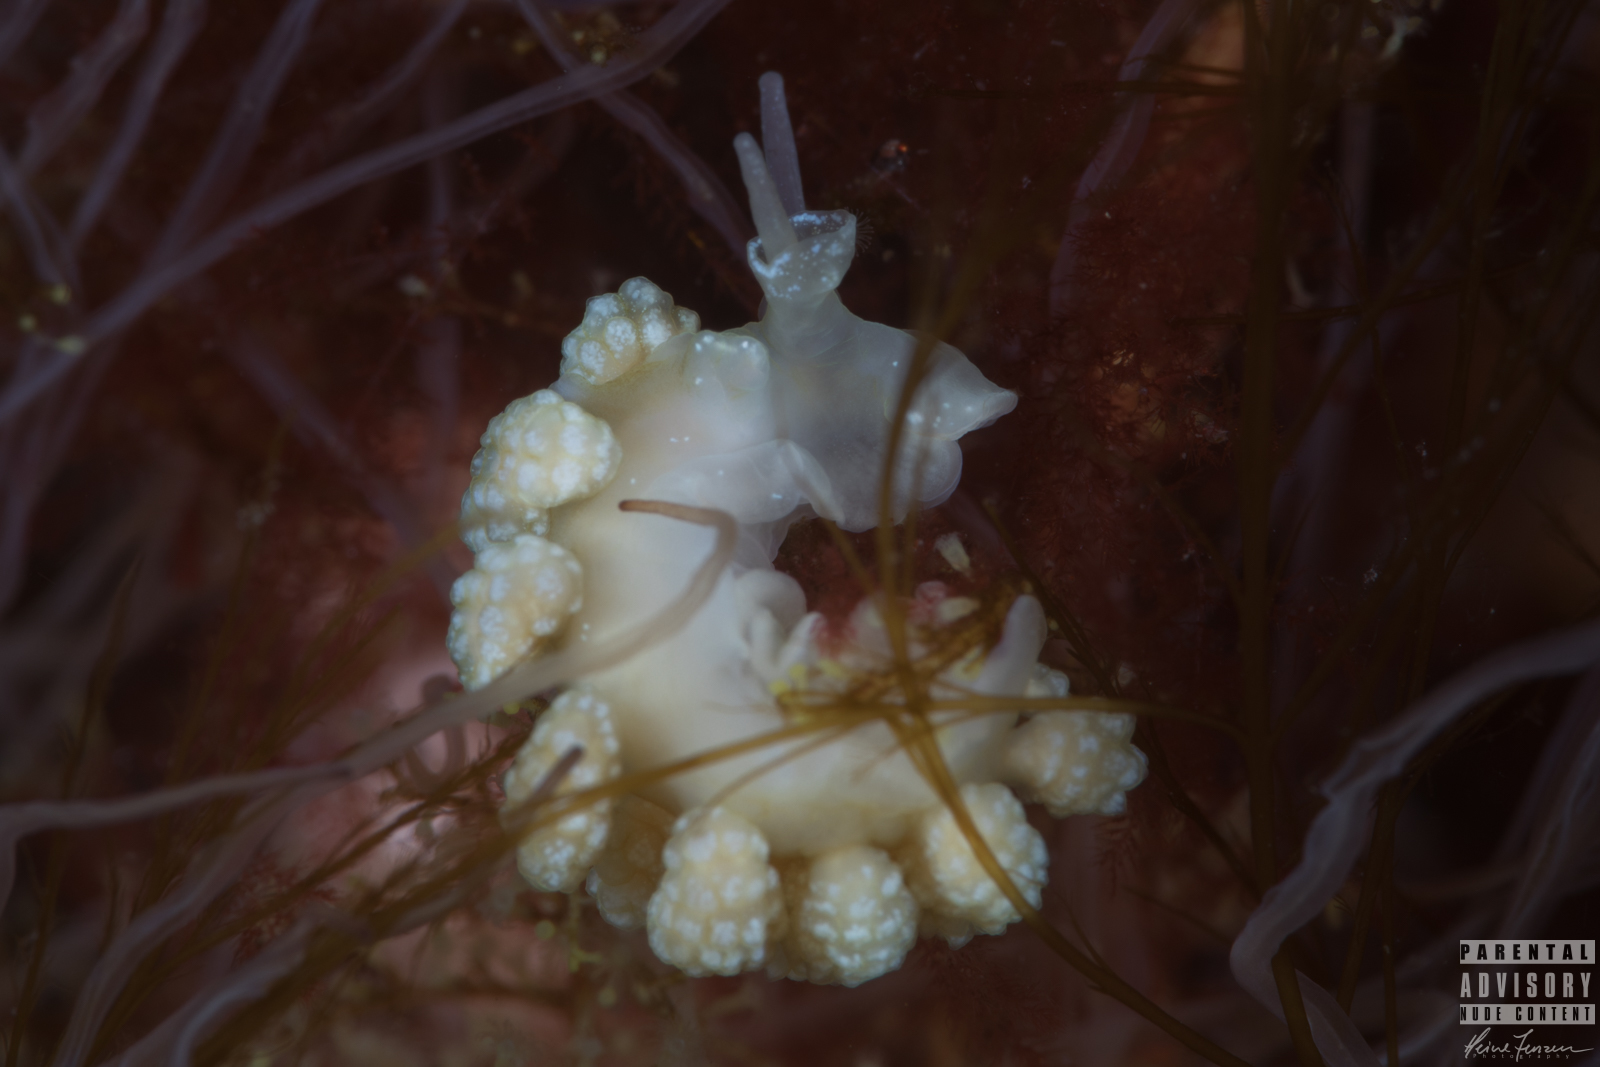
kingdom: Animalia
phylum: Mollusca
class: Gastropoda
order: Nudibranchia
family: Dotidae
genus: Doto
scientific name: Doto fragilis
